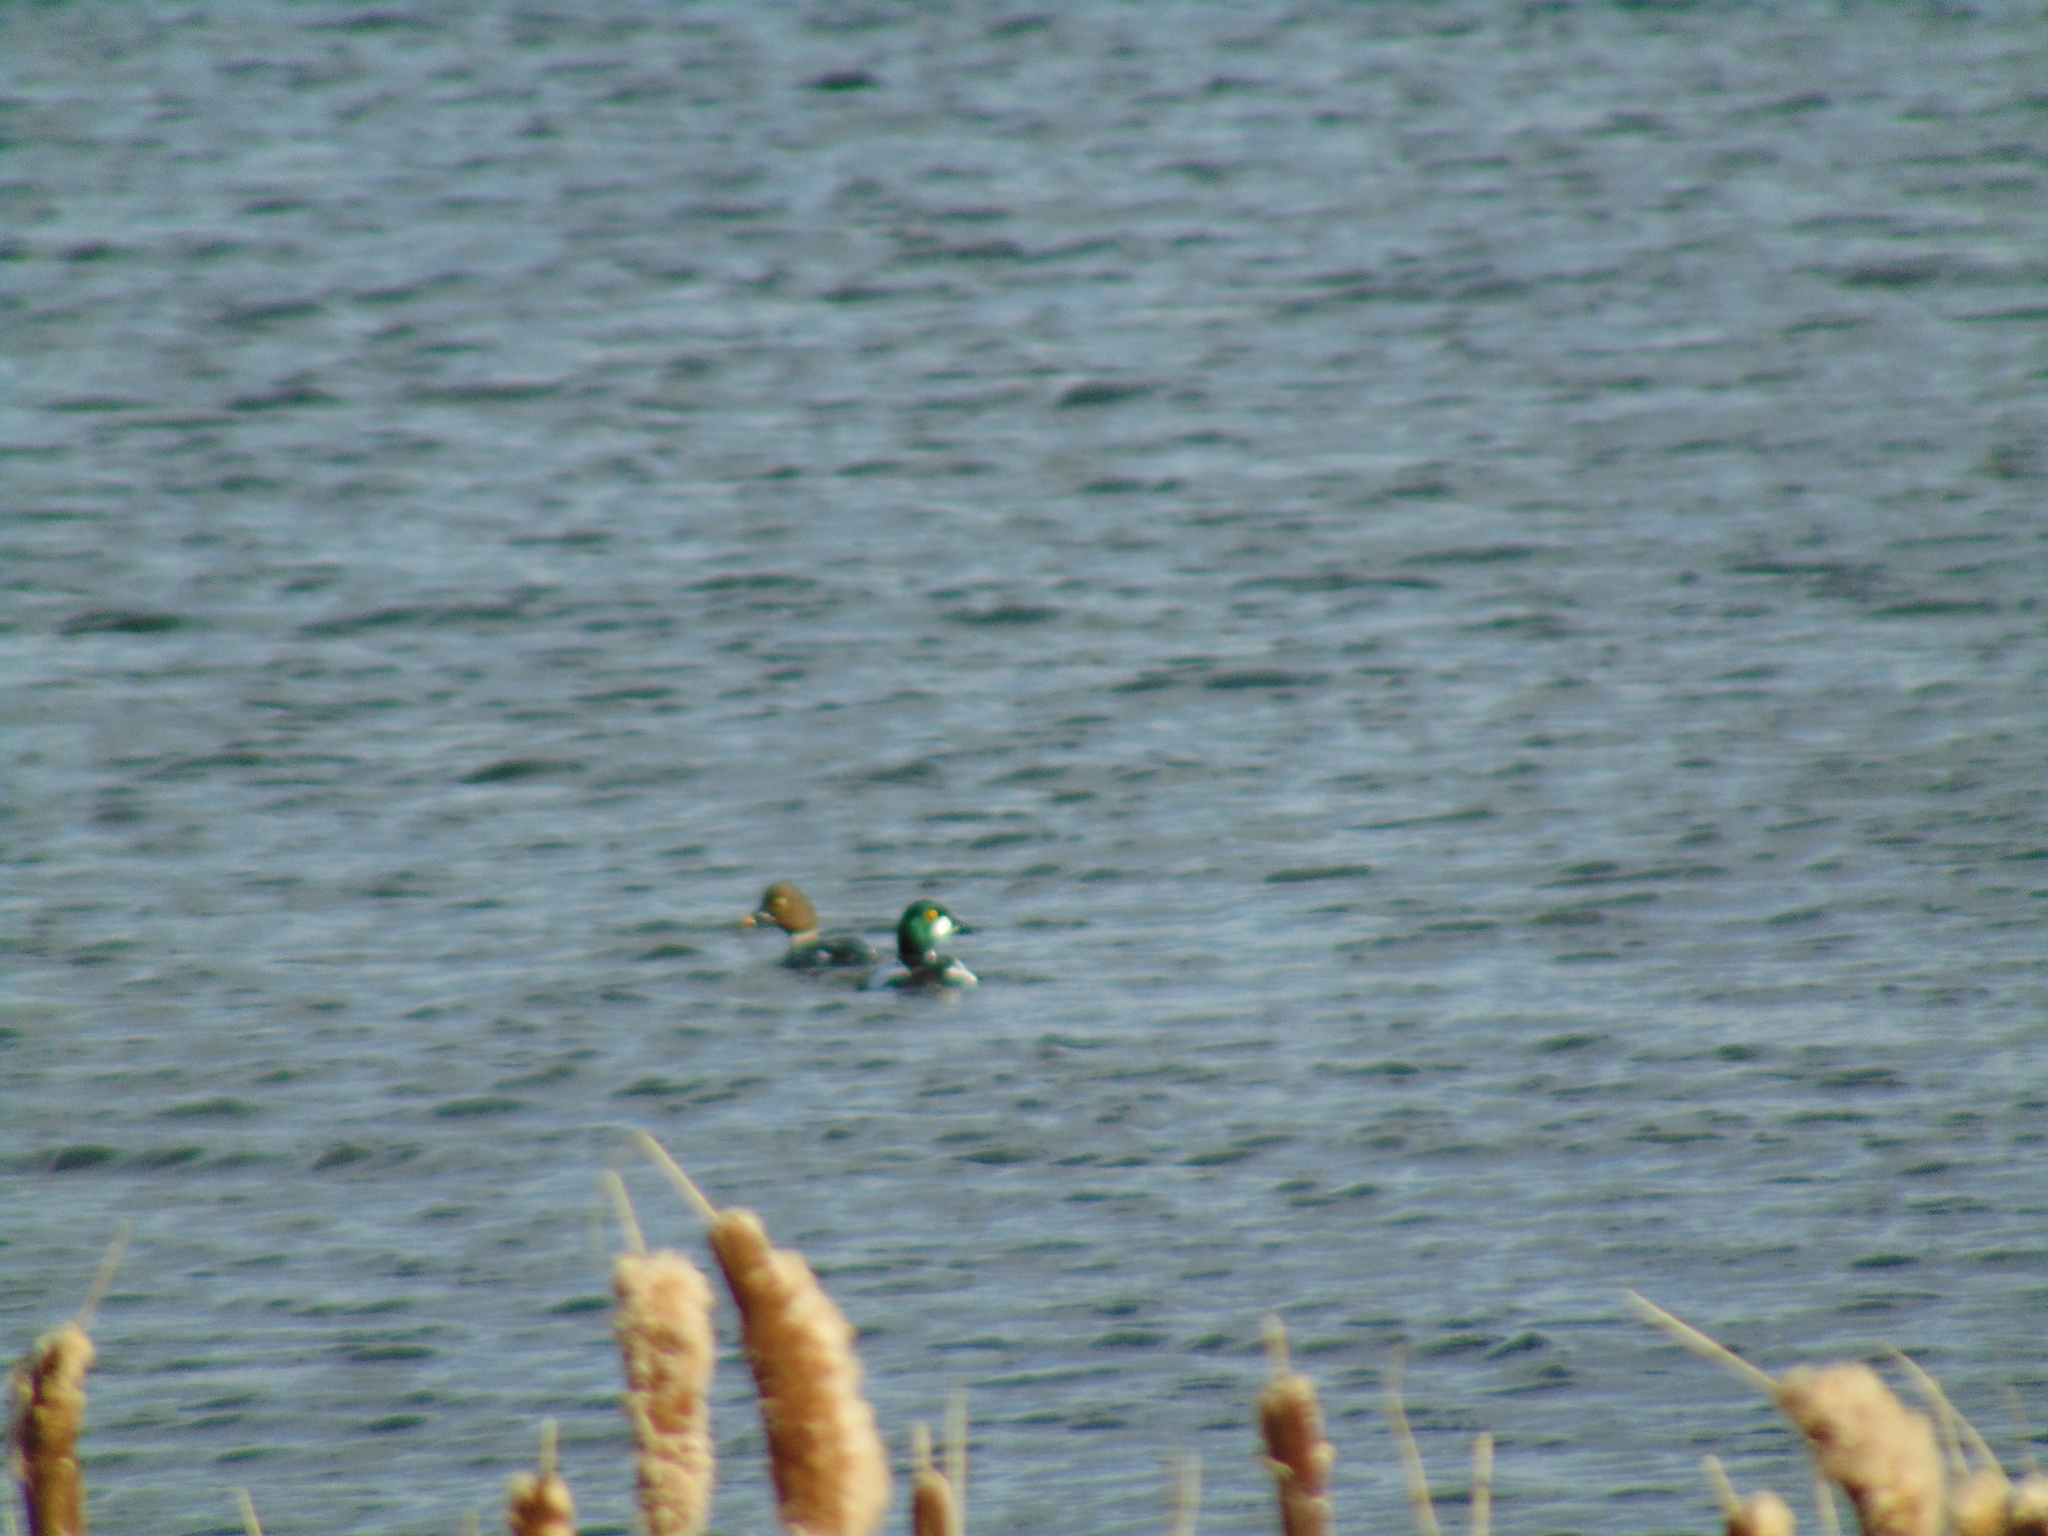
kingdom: Animalia
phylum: Chordata
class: Aves
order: Anseriformes
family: Anatidae
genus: Bucephala
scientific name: Bucephala clangula
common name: Common goldeneye
